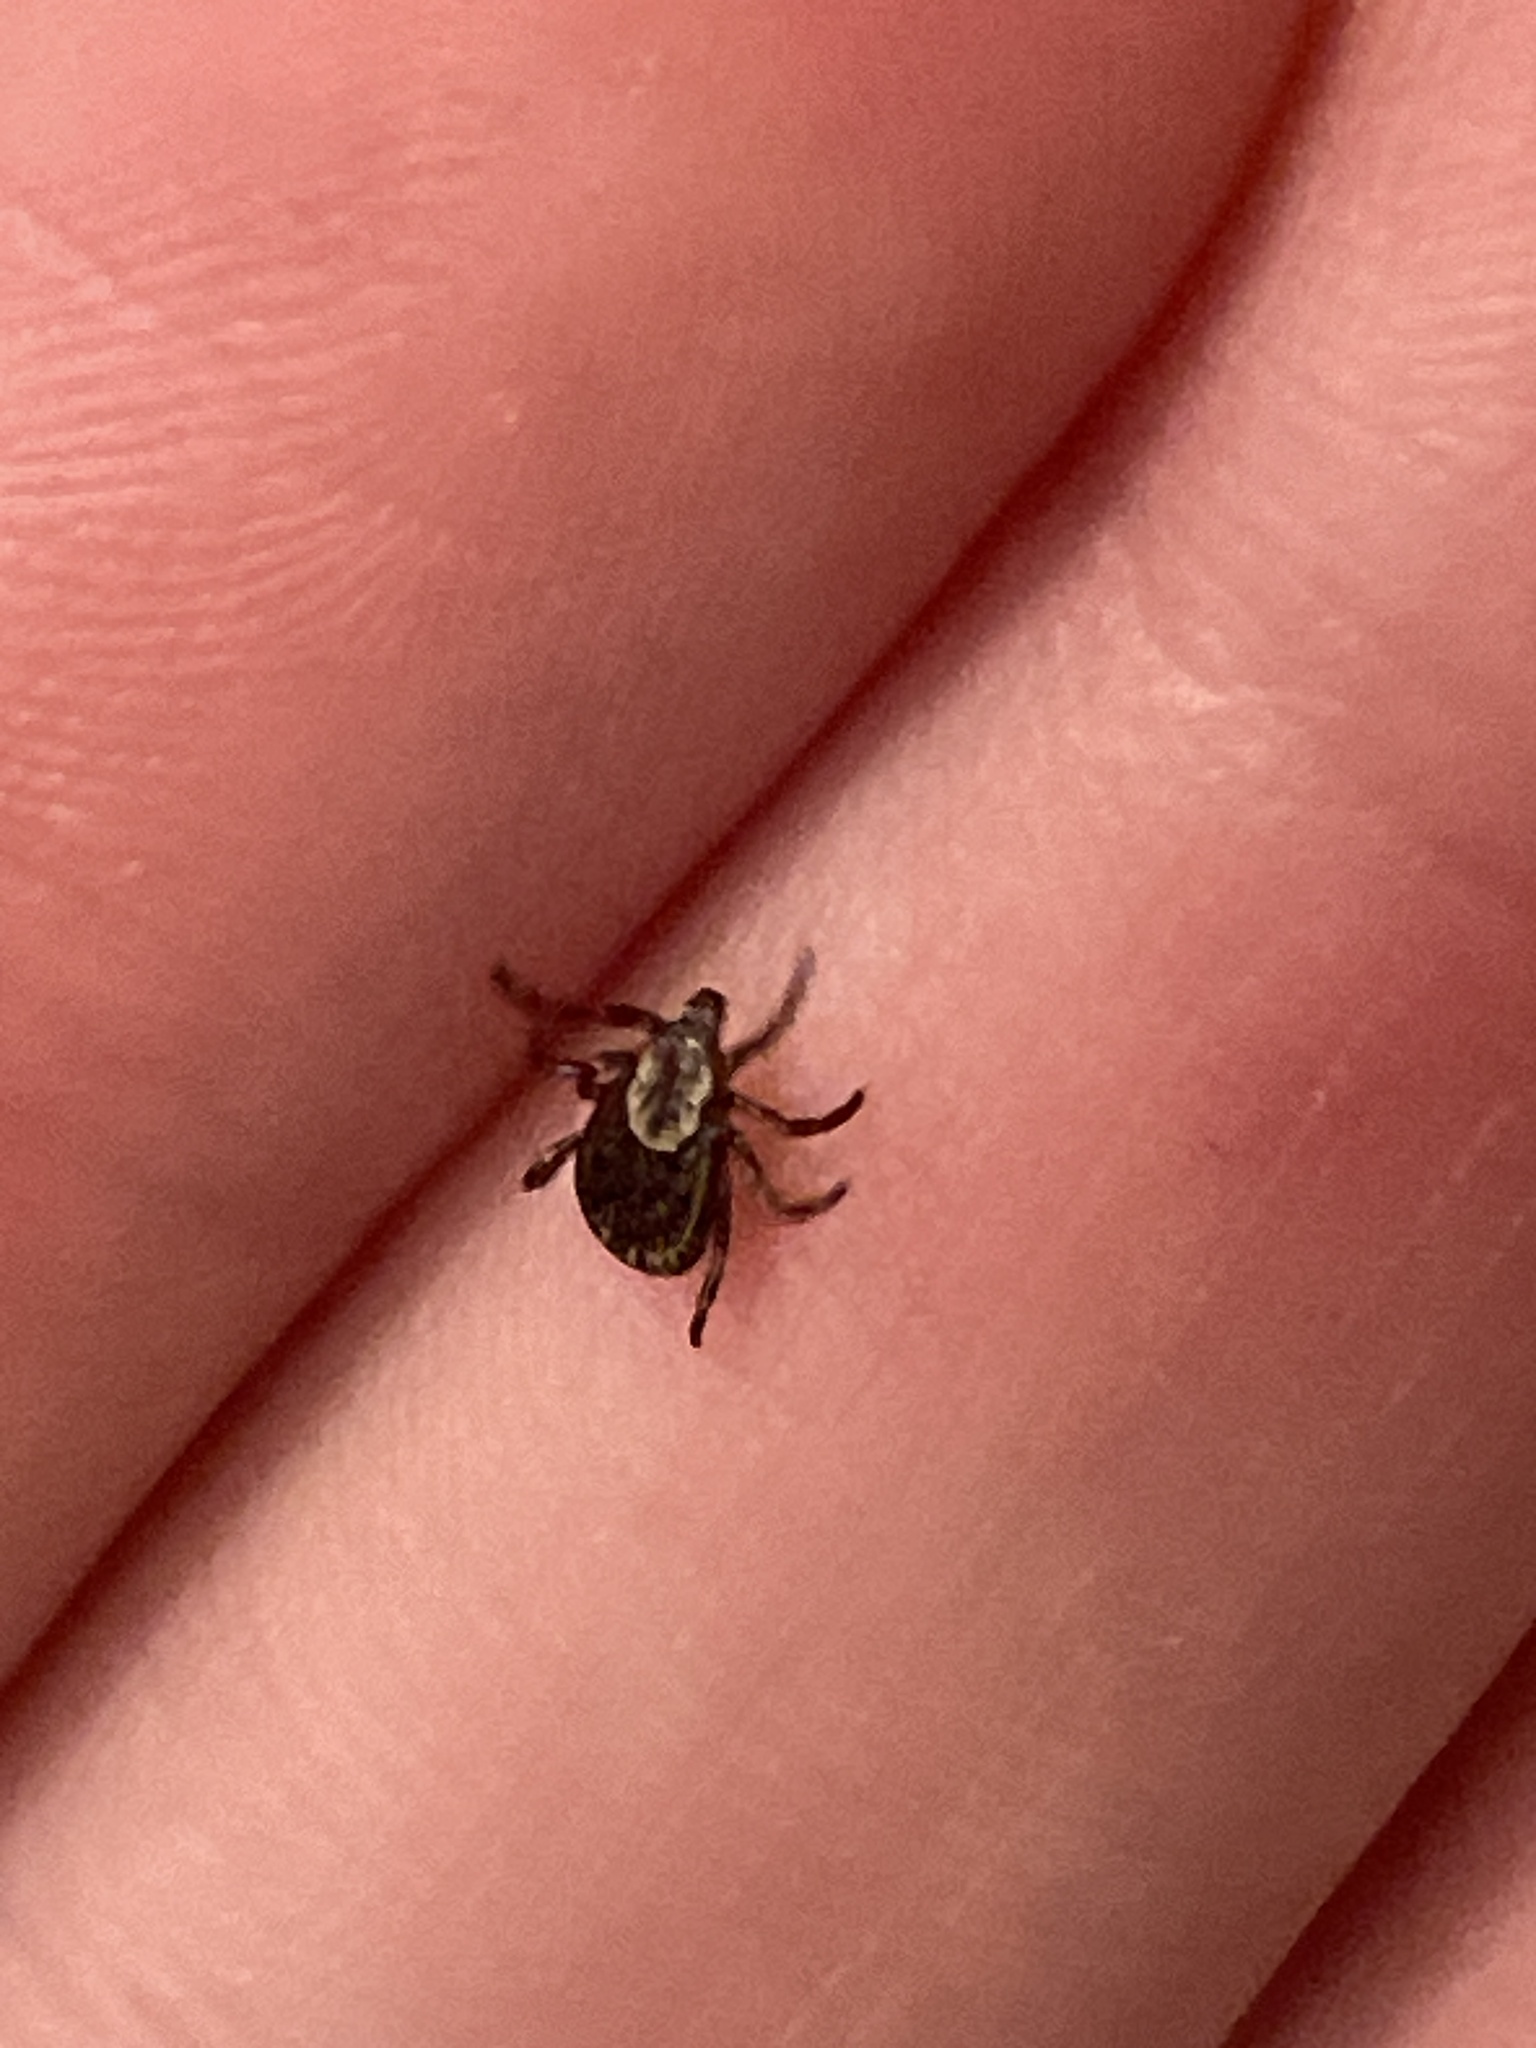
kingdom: Animalia
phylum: Arthropoda
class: Arachnida
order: Ixodida
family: Ixodidae
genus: Dermacentor
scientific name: Dermacentor variabilis
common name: American dog tick
